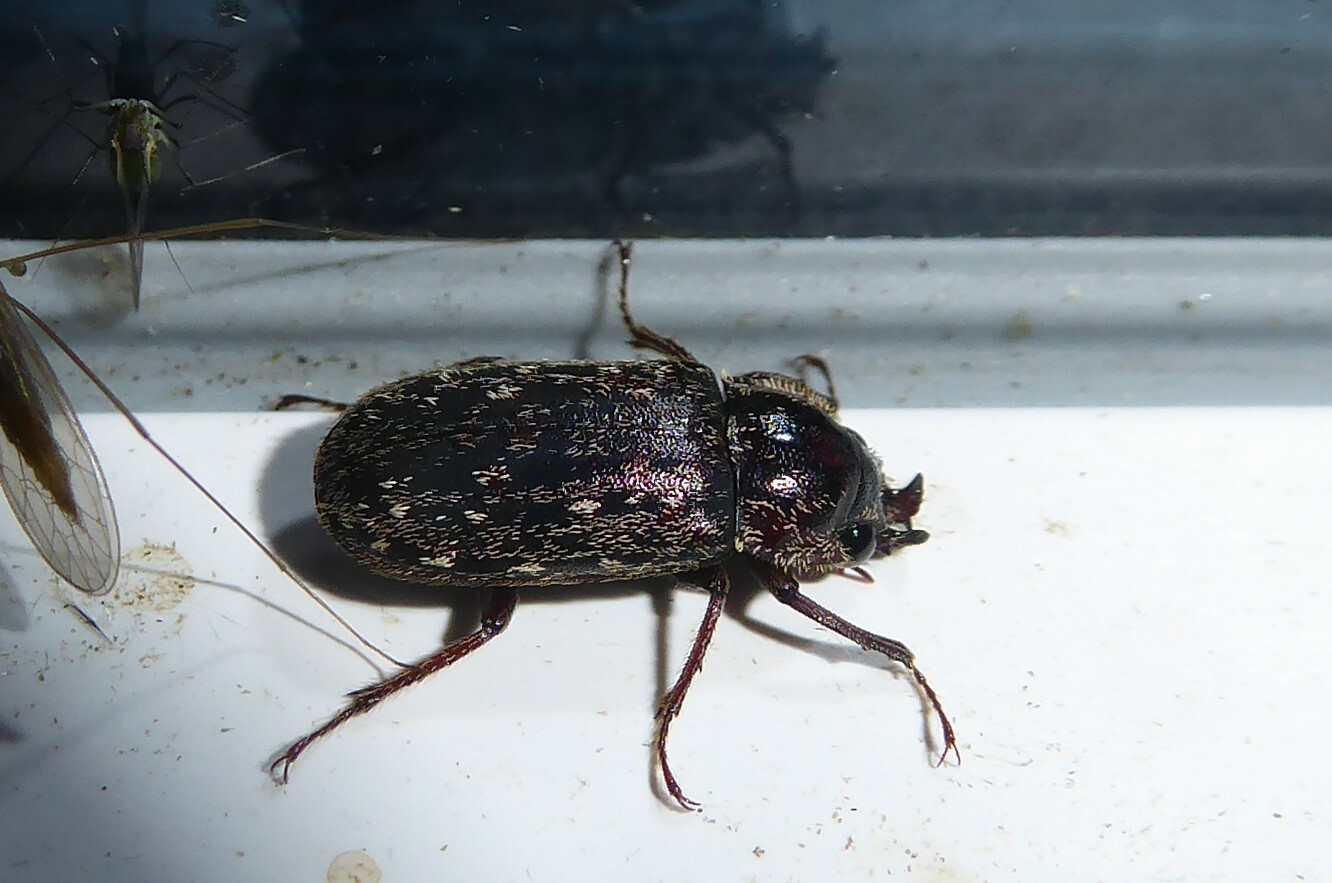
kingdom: Animalia
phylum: Arthropoda
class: Insecta
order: Coleoptera
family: Lucanidae
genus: Mitophyllus
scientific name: Mitophyllus irroratus
